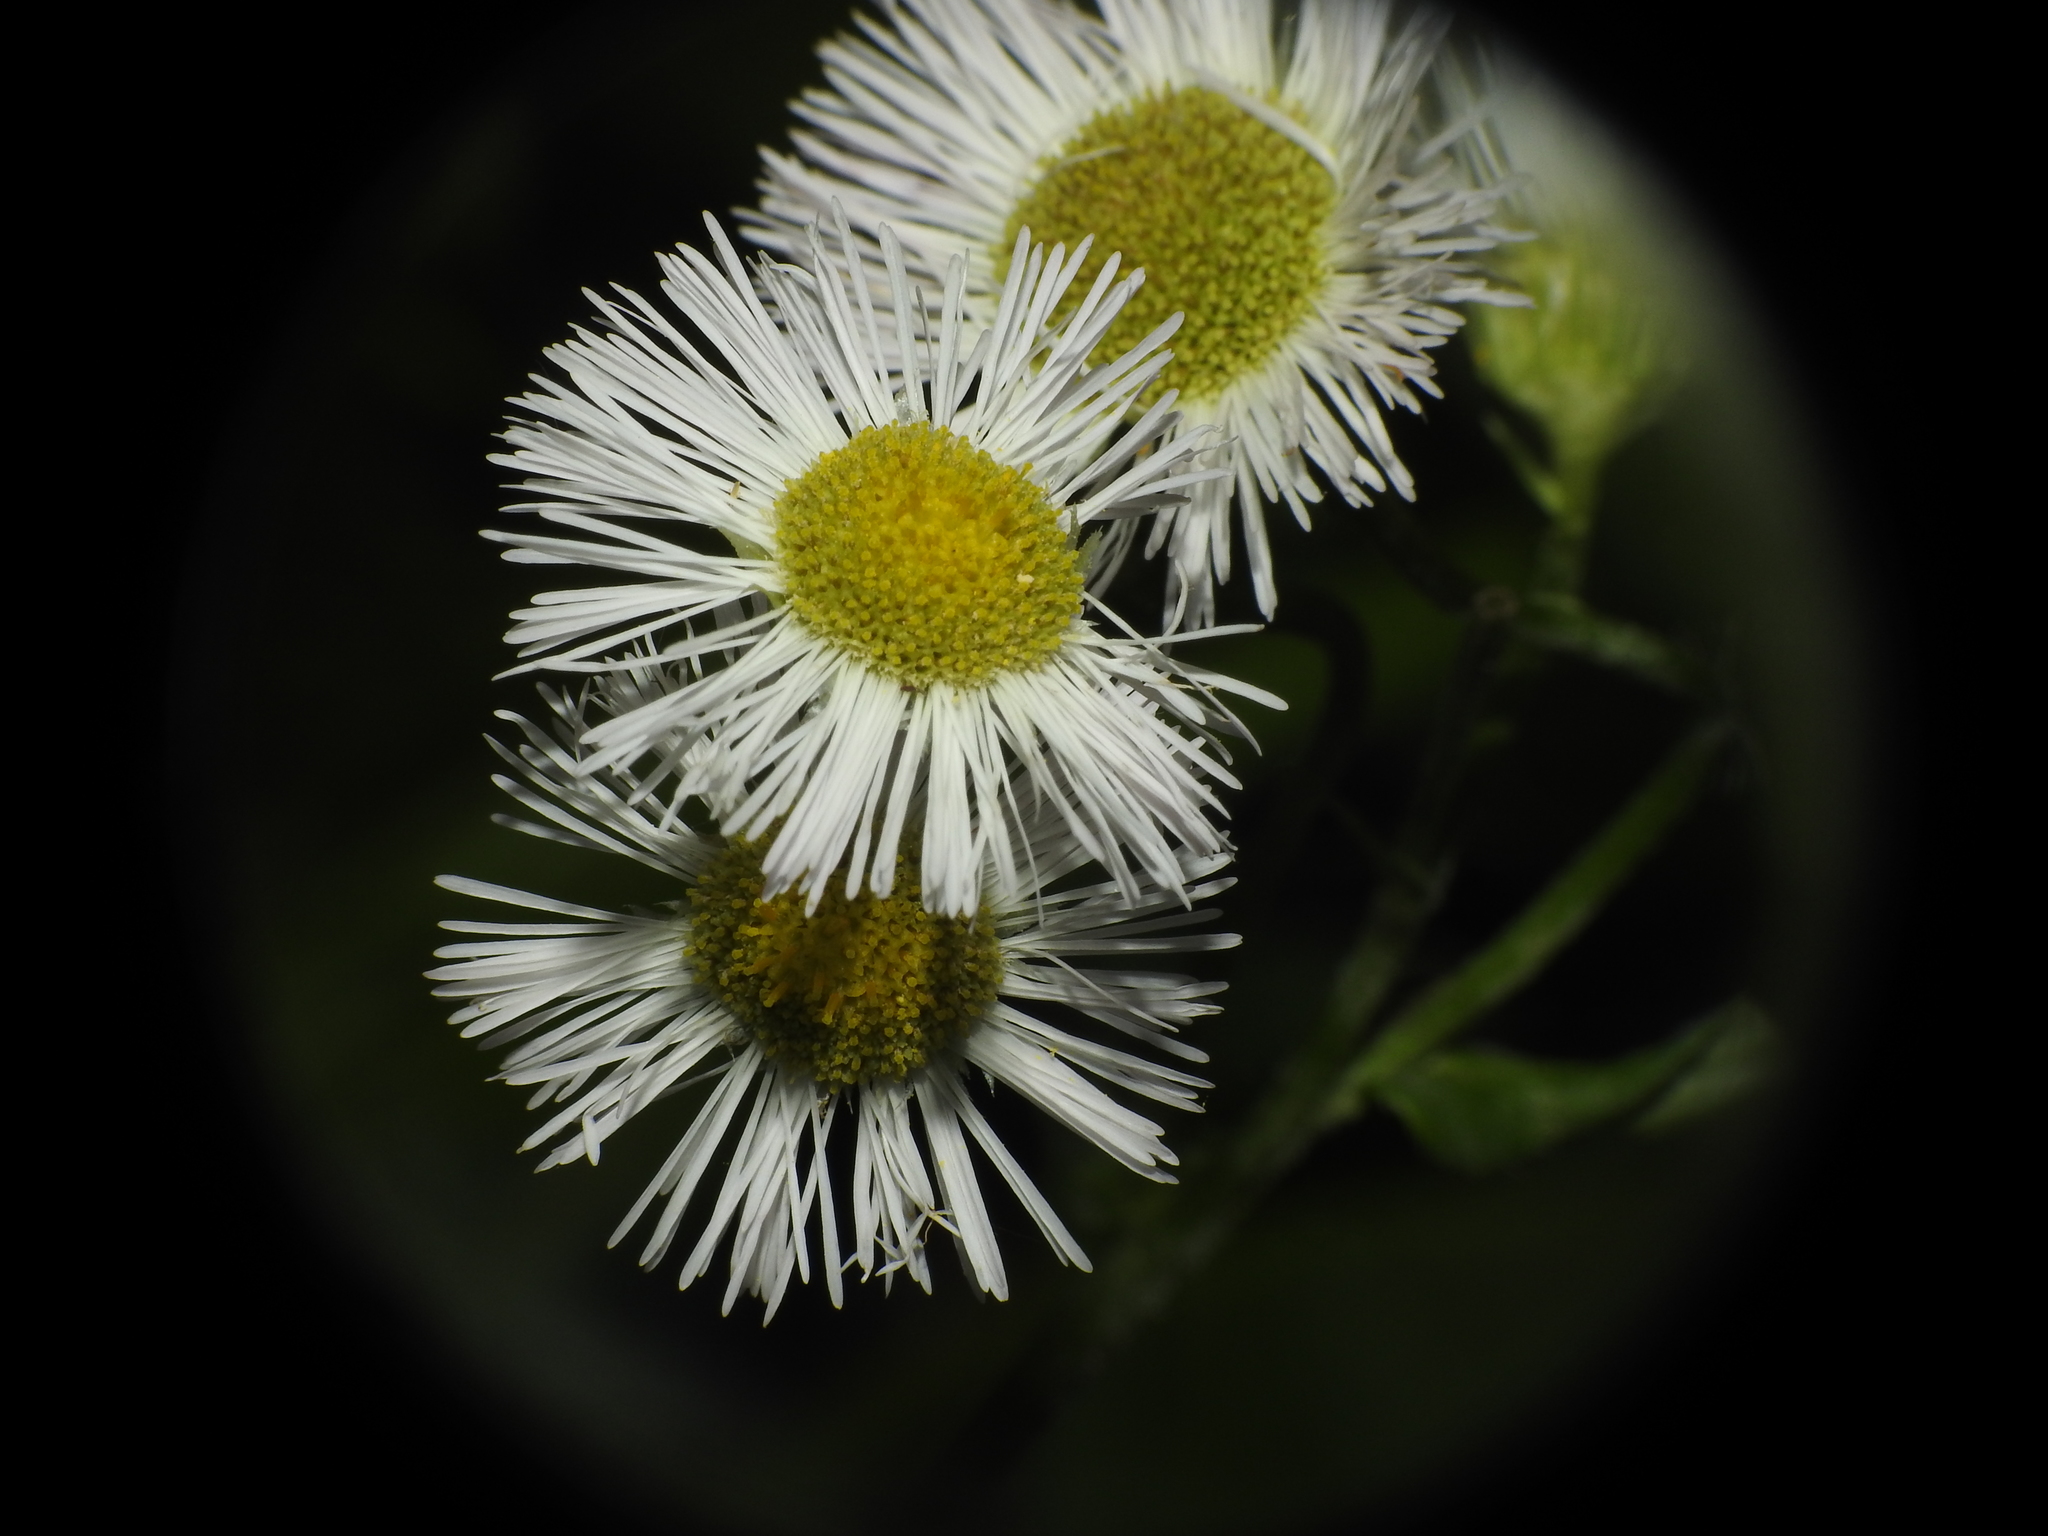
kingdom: Plantae
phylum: Tracheophyta
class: Magnoliopsida
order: Asterales
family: Asteraceae
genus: Erigeron
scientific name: Erigeron philadelphicus
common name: Robin's-plantain
